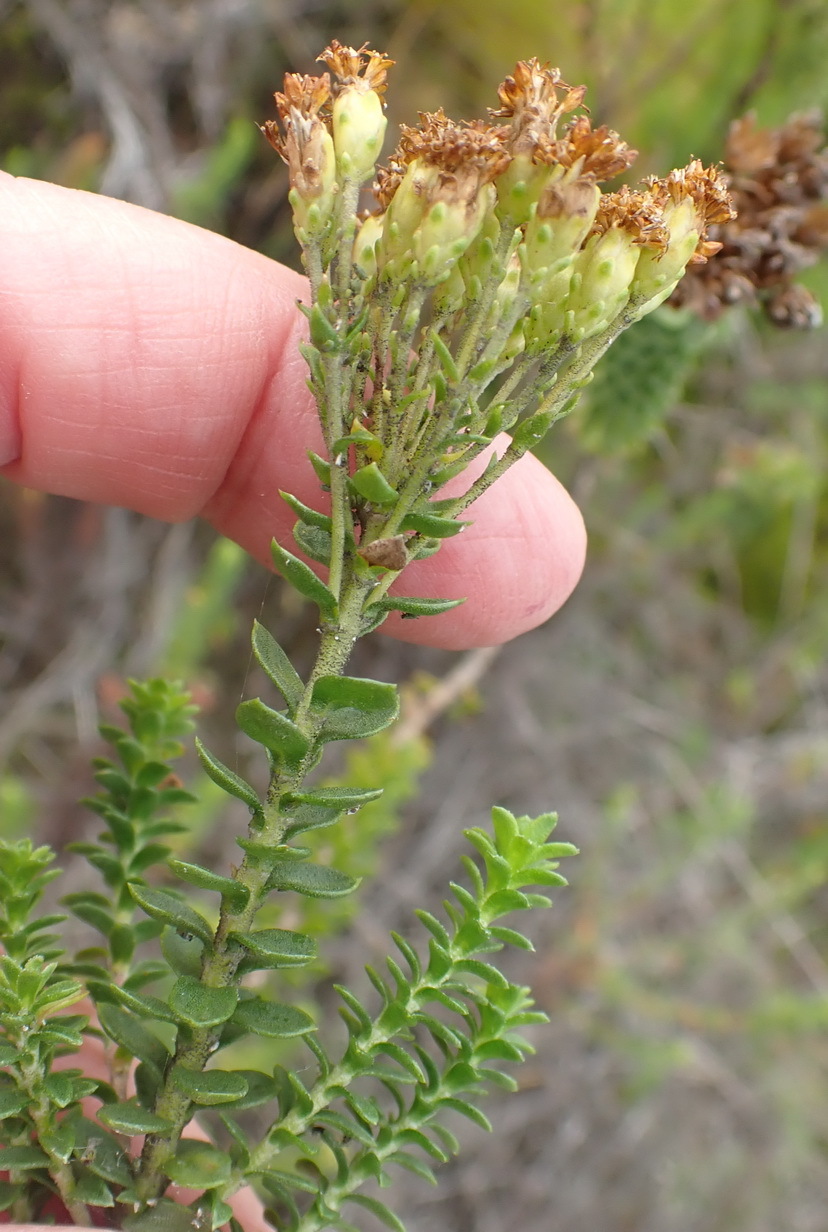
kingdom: Plantae
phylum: Tracheophyta
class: Magnoliopsida
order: Asterales
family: Asteraceae
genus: Athanasia
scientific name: Athanasia quinquedentata
